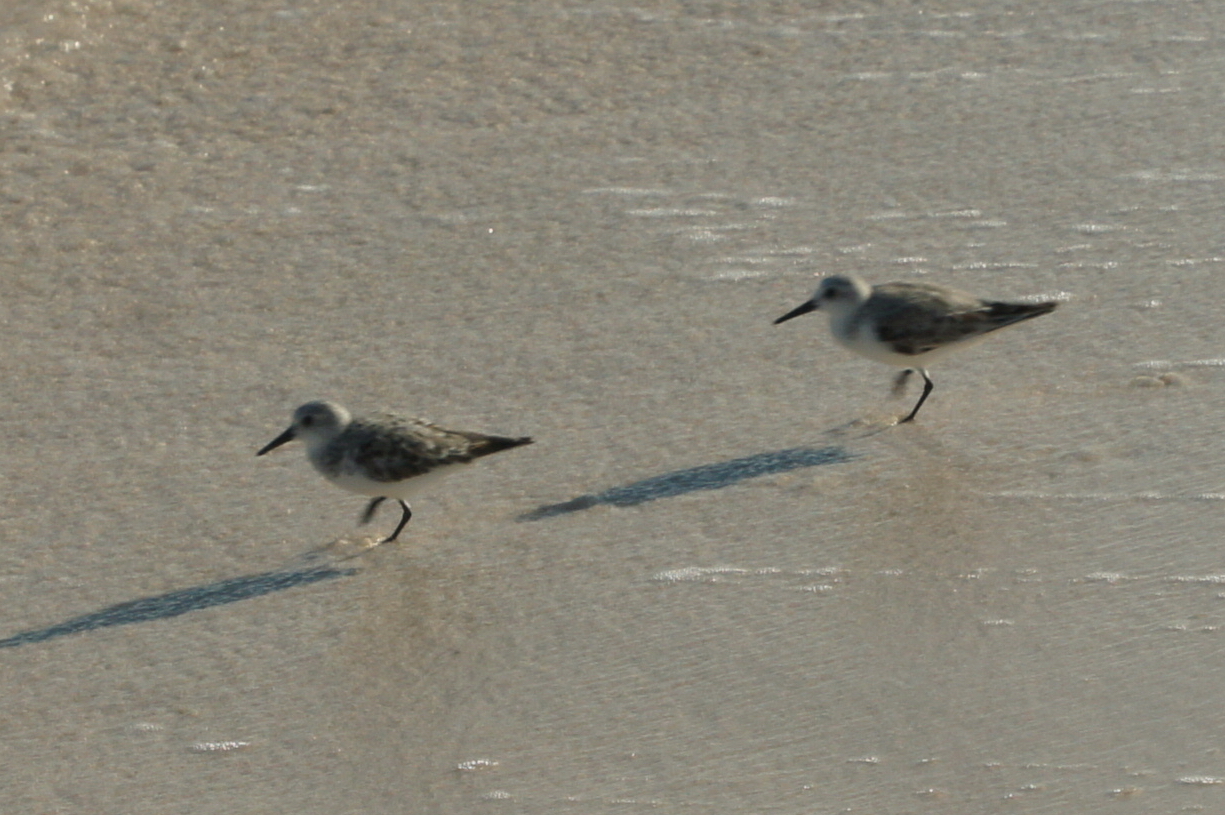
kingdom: Animalia
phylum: Chordata
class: Aves
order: Charadriiformes
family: Scolopacidae
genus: Calidris
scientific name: Calidris alba
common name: Sanderling
